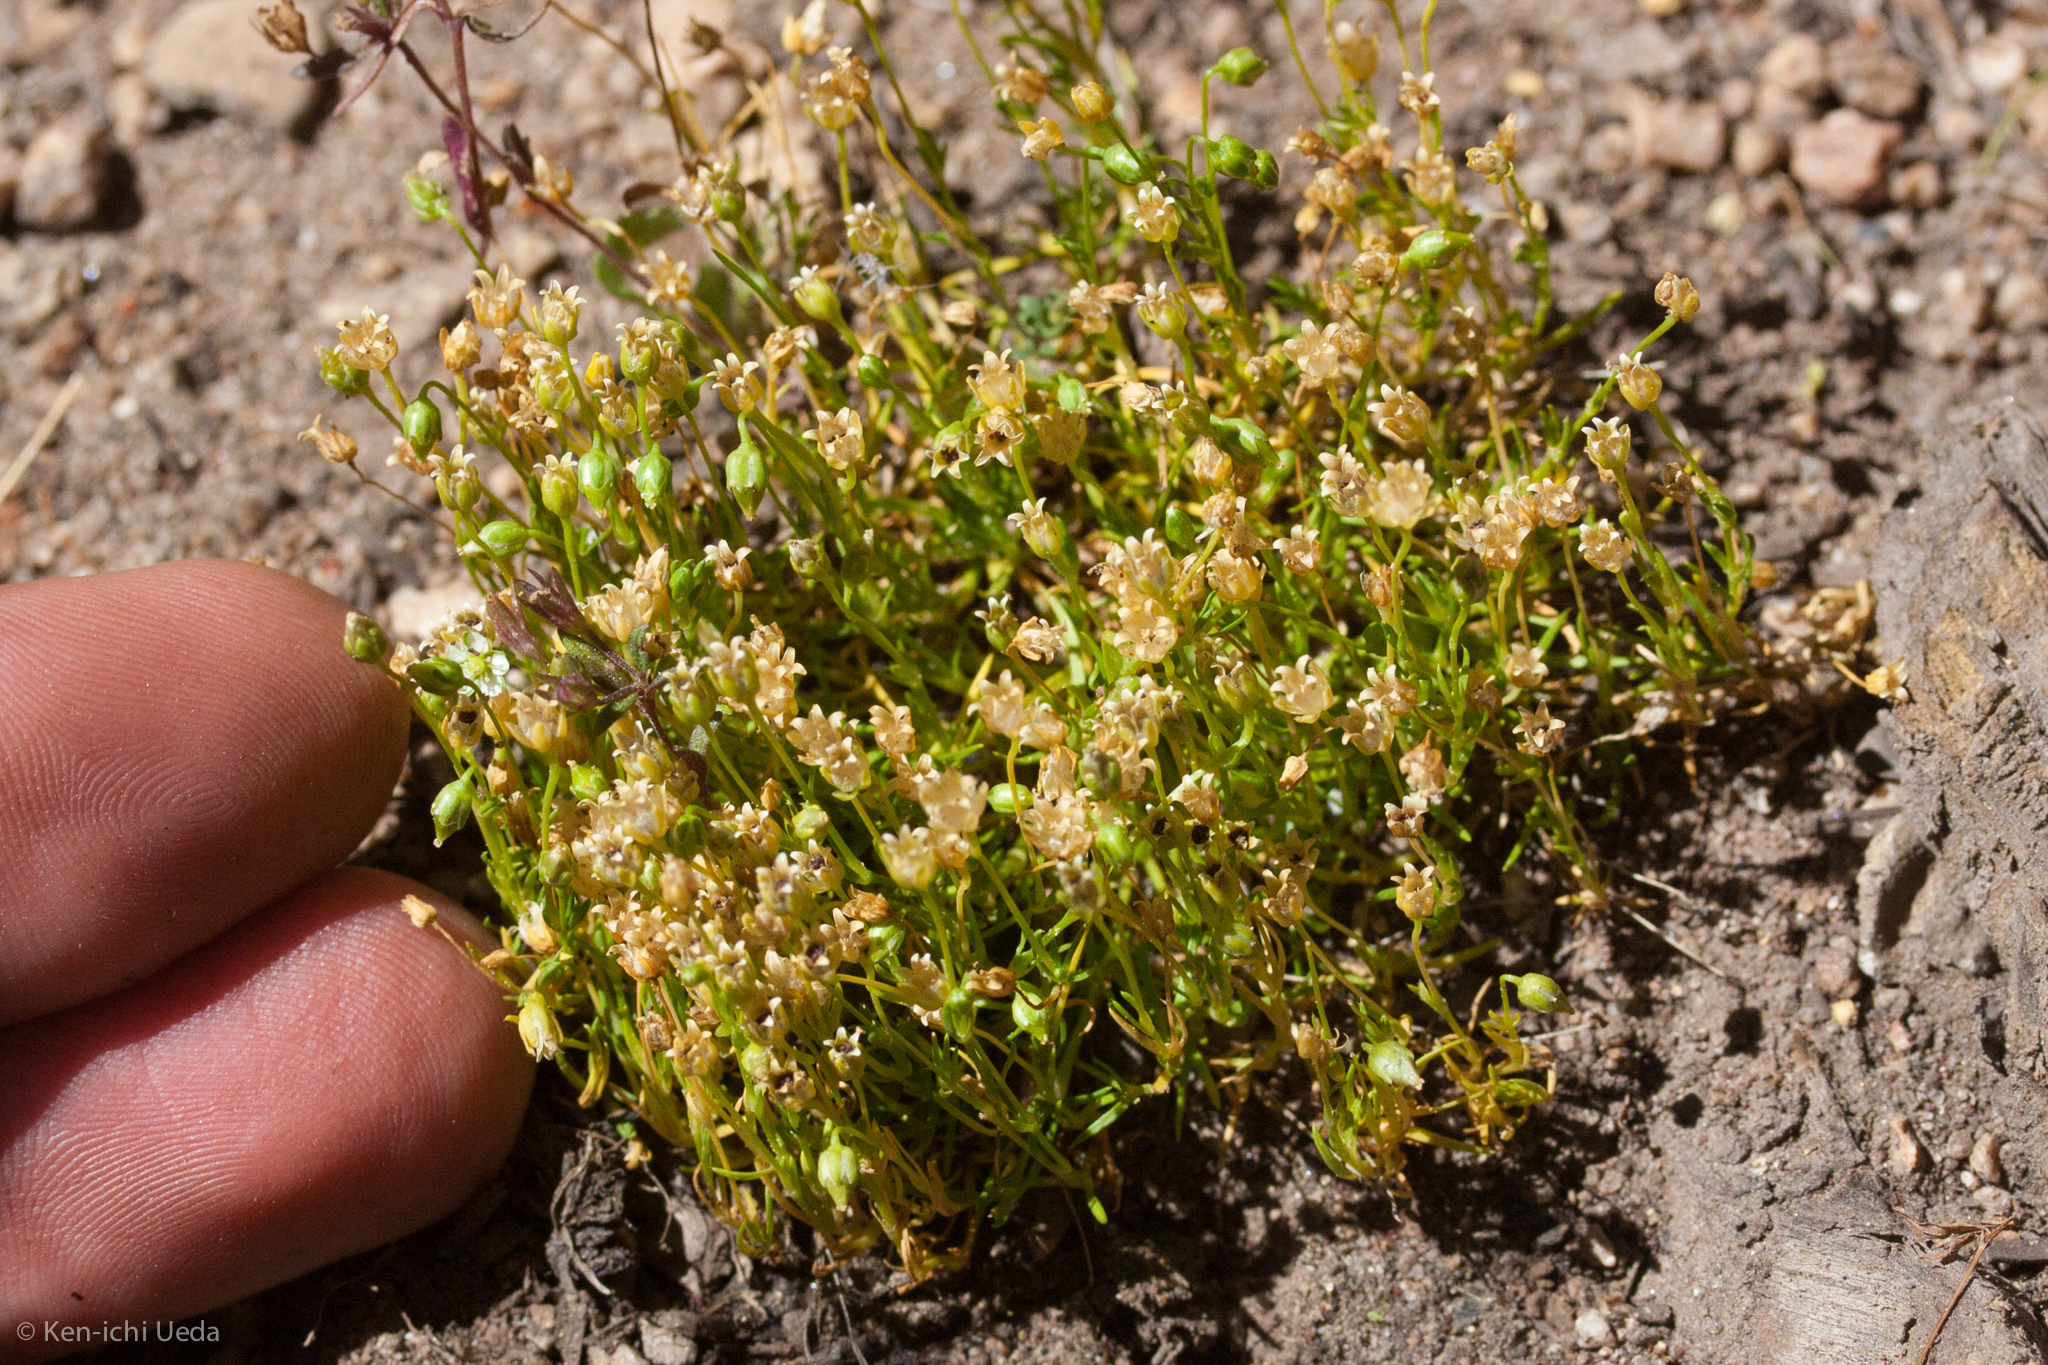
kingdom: Plantae
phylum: Tracheophyta
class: Magnoliopsida
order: Caryophyllales
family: Caryophyllaceae
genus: Sagina
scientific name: Sagina saginoides
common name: Alpine pearlwort
